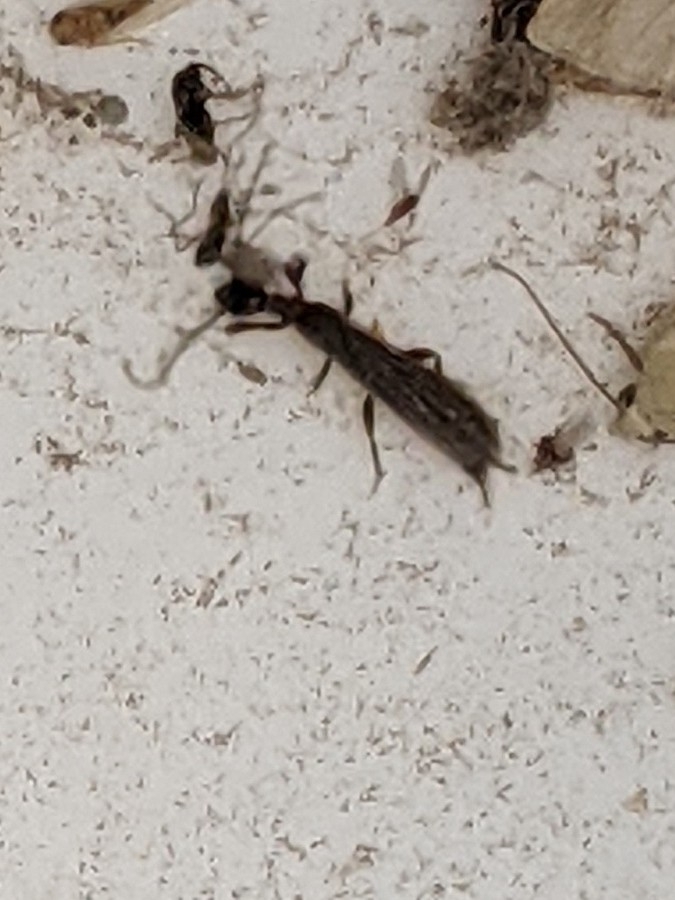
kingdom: Animalia
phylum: Arthropoda
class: Insecta
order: Embioptera
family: Oligotomidae
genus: Oligotoma
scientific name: Oligotoma nigra
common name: Black webspinner
